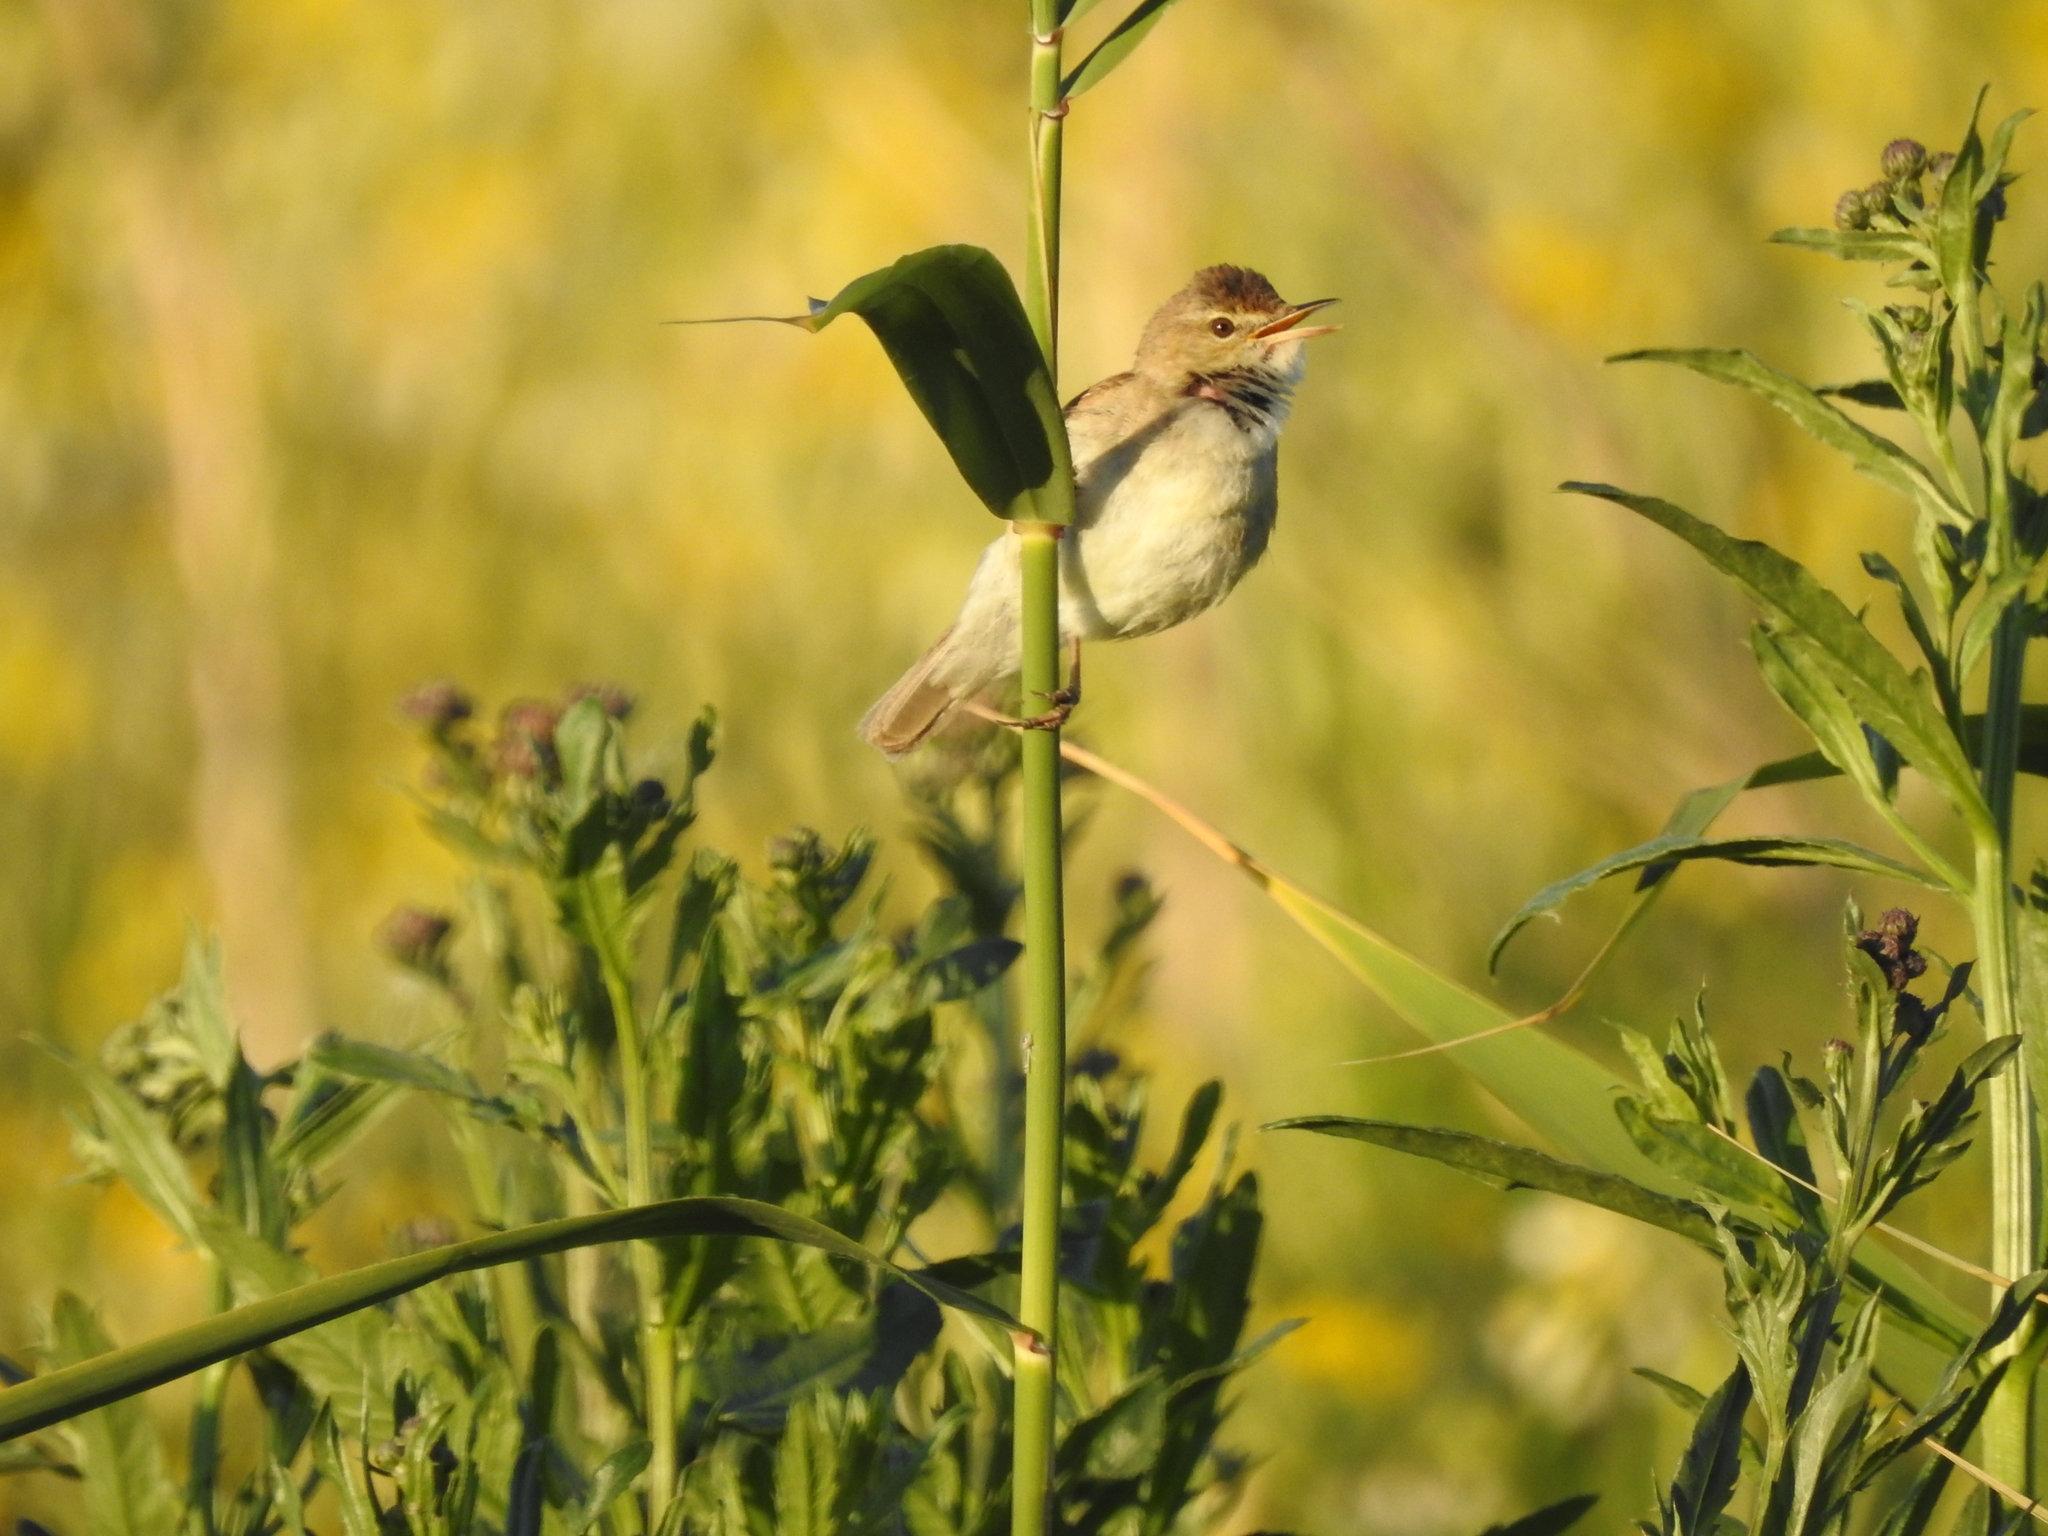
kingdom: Animalia
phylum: Chordata
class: Aves
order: Passeriformes
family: Acrocephalidae
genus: Acrocephalus
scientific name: Acrocephalus dumetorum
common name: Blyth's reed warbler
